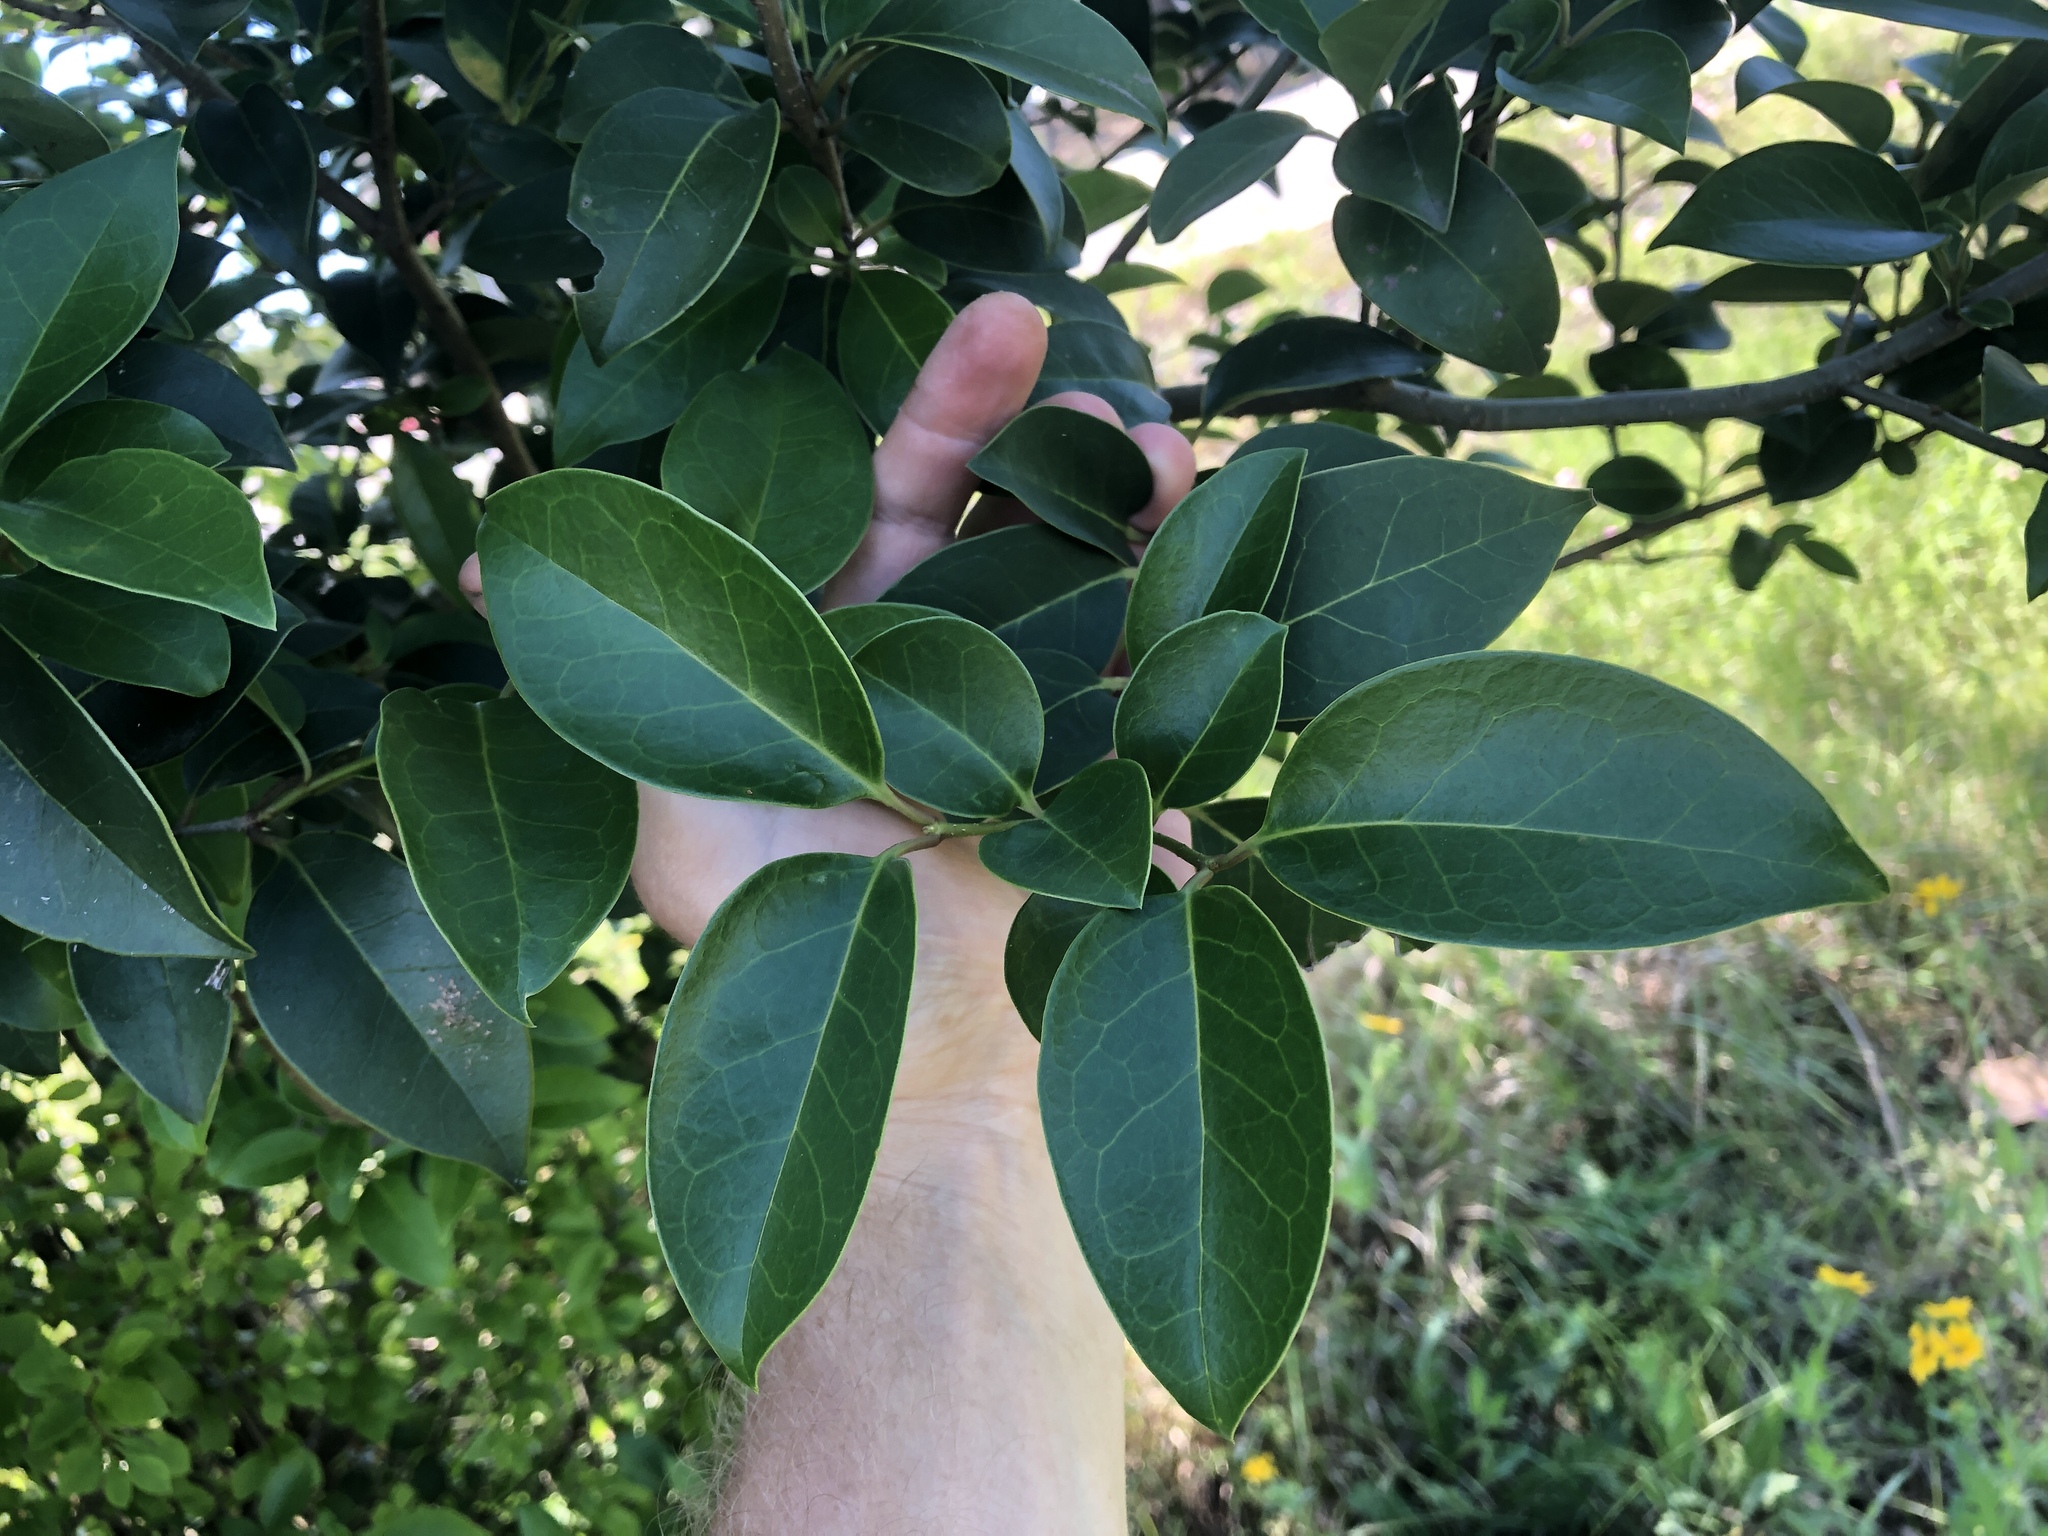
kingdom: Plantae
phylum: Tracheophyta
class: Magnoliopsida
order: Lamiales
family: Oleaceae
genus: Ligustrum
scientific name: Ligustrum lucidum
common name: Glossy privet
